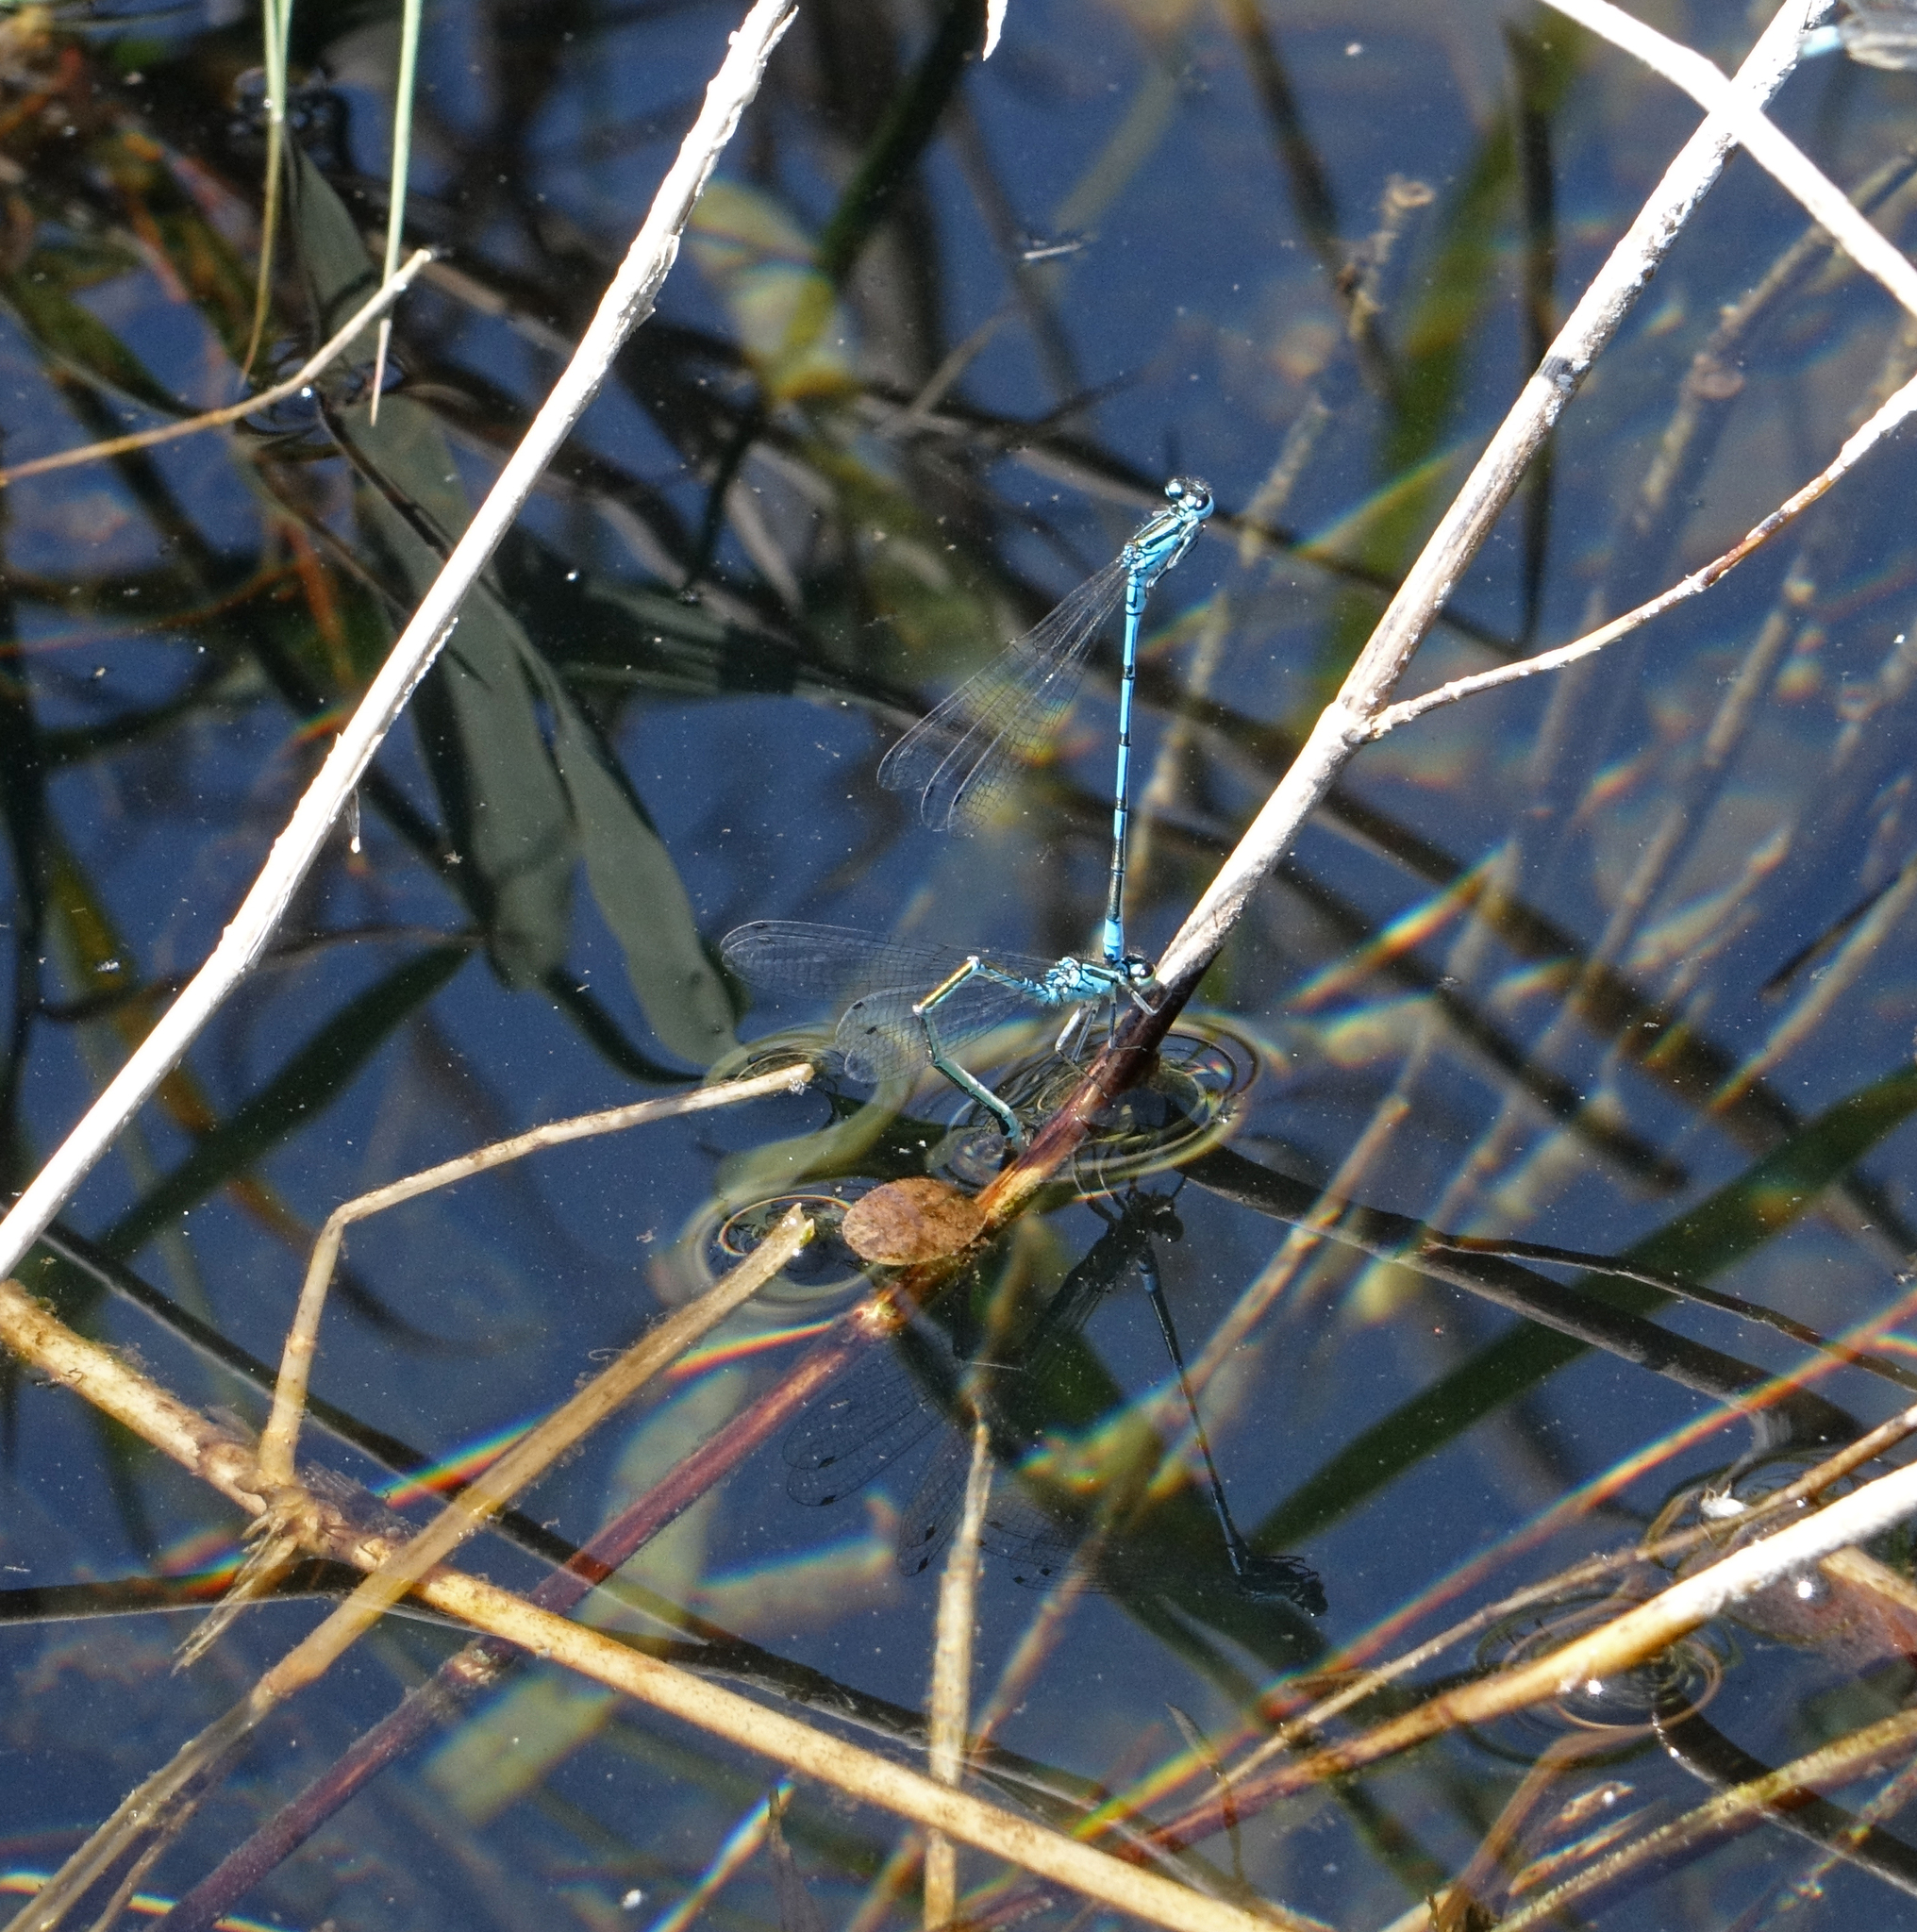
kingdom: Animalia
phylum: Arthropoda
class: Insecta
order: Odonata
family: Coenagrionidae
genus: Coenagrion
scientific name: Coenagrion puella
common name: Azure damselfly
